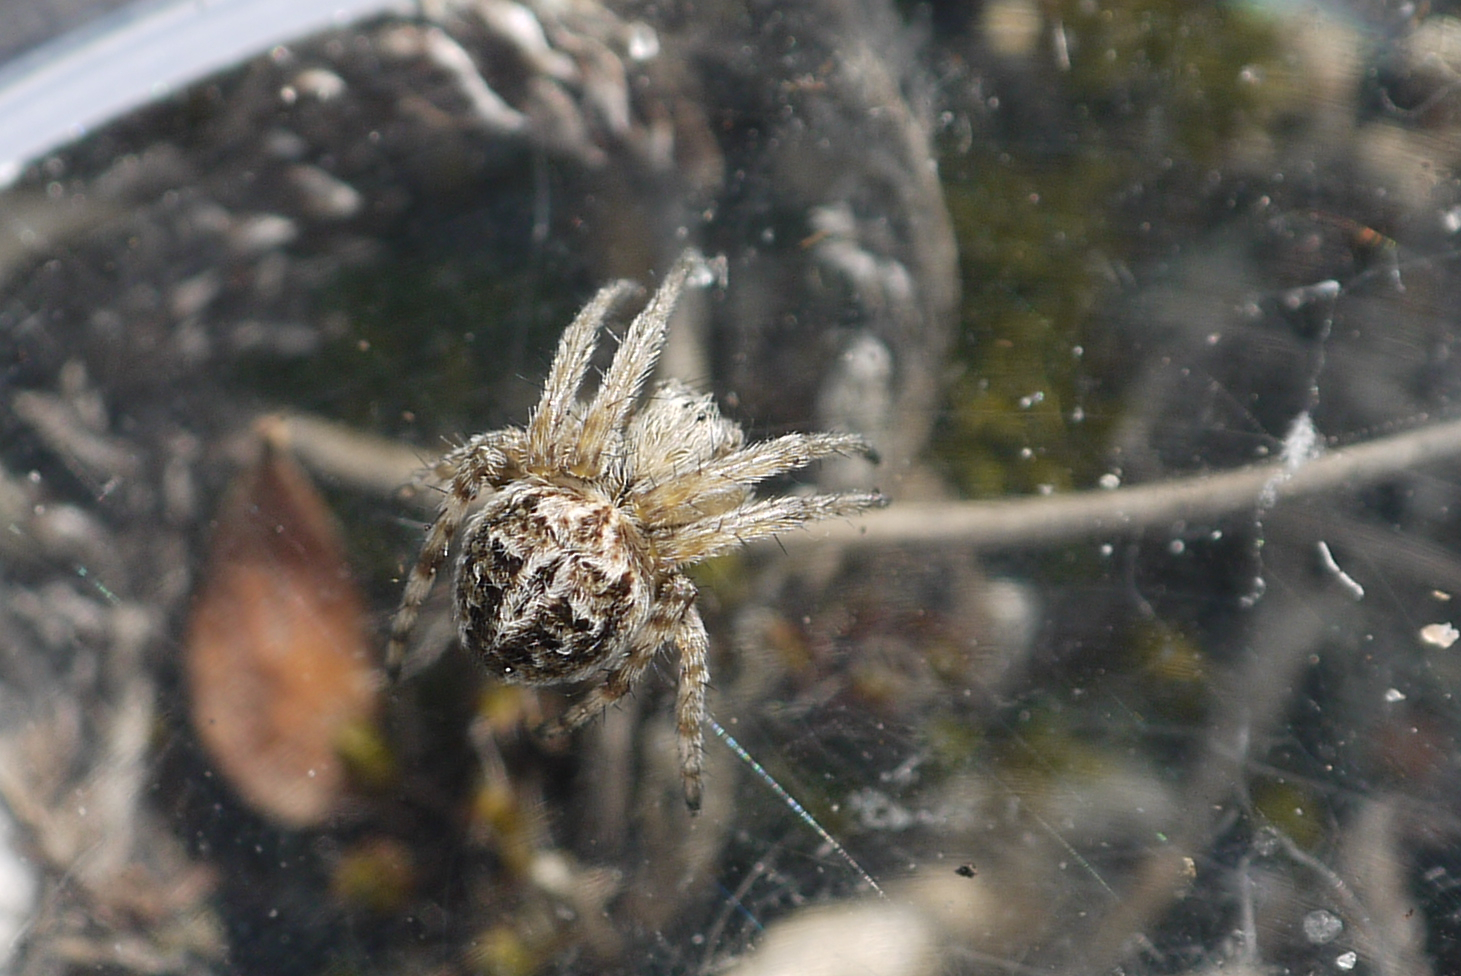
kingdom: Animalia
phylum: Arthropoda
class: Arachnida
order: Araneae
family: Araneidae
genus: Agalenatea
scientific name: Agalenatea redii
